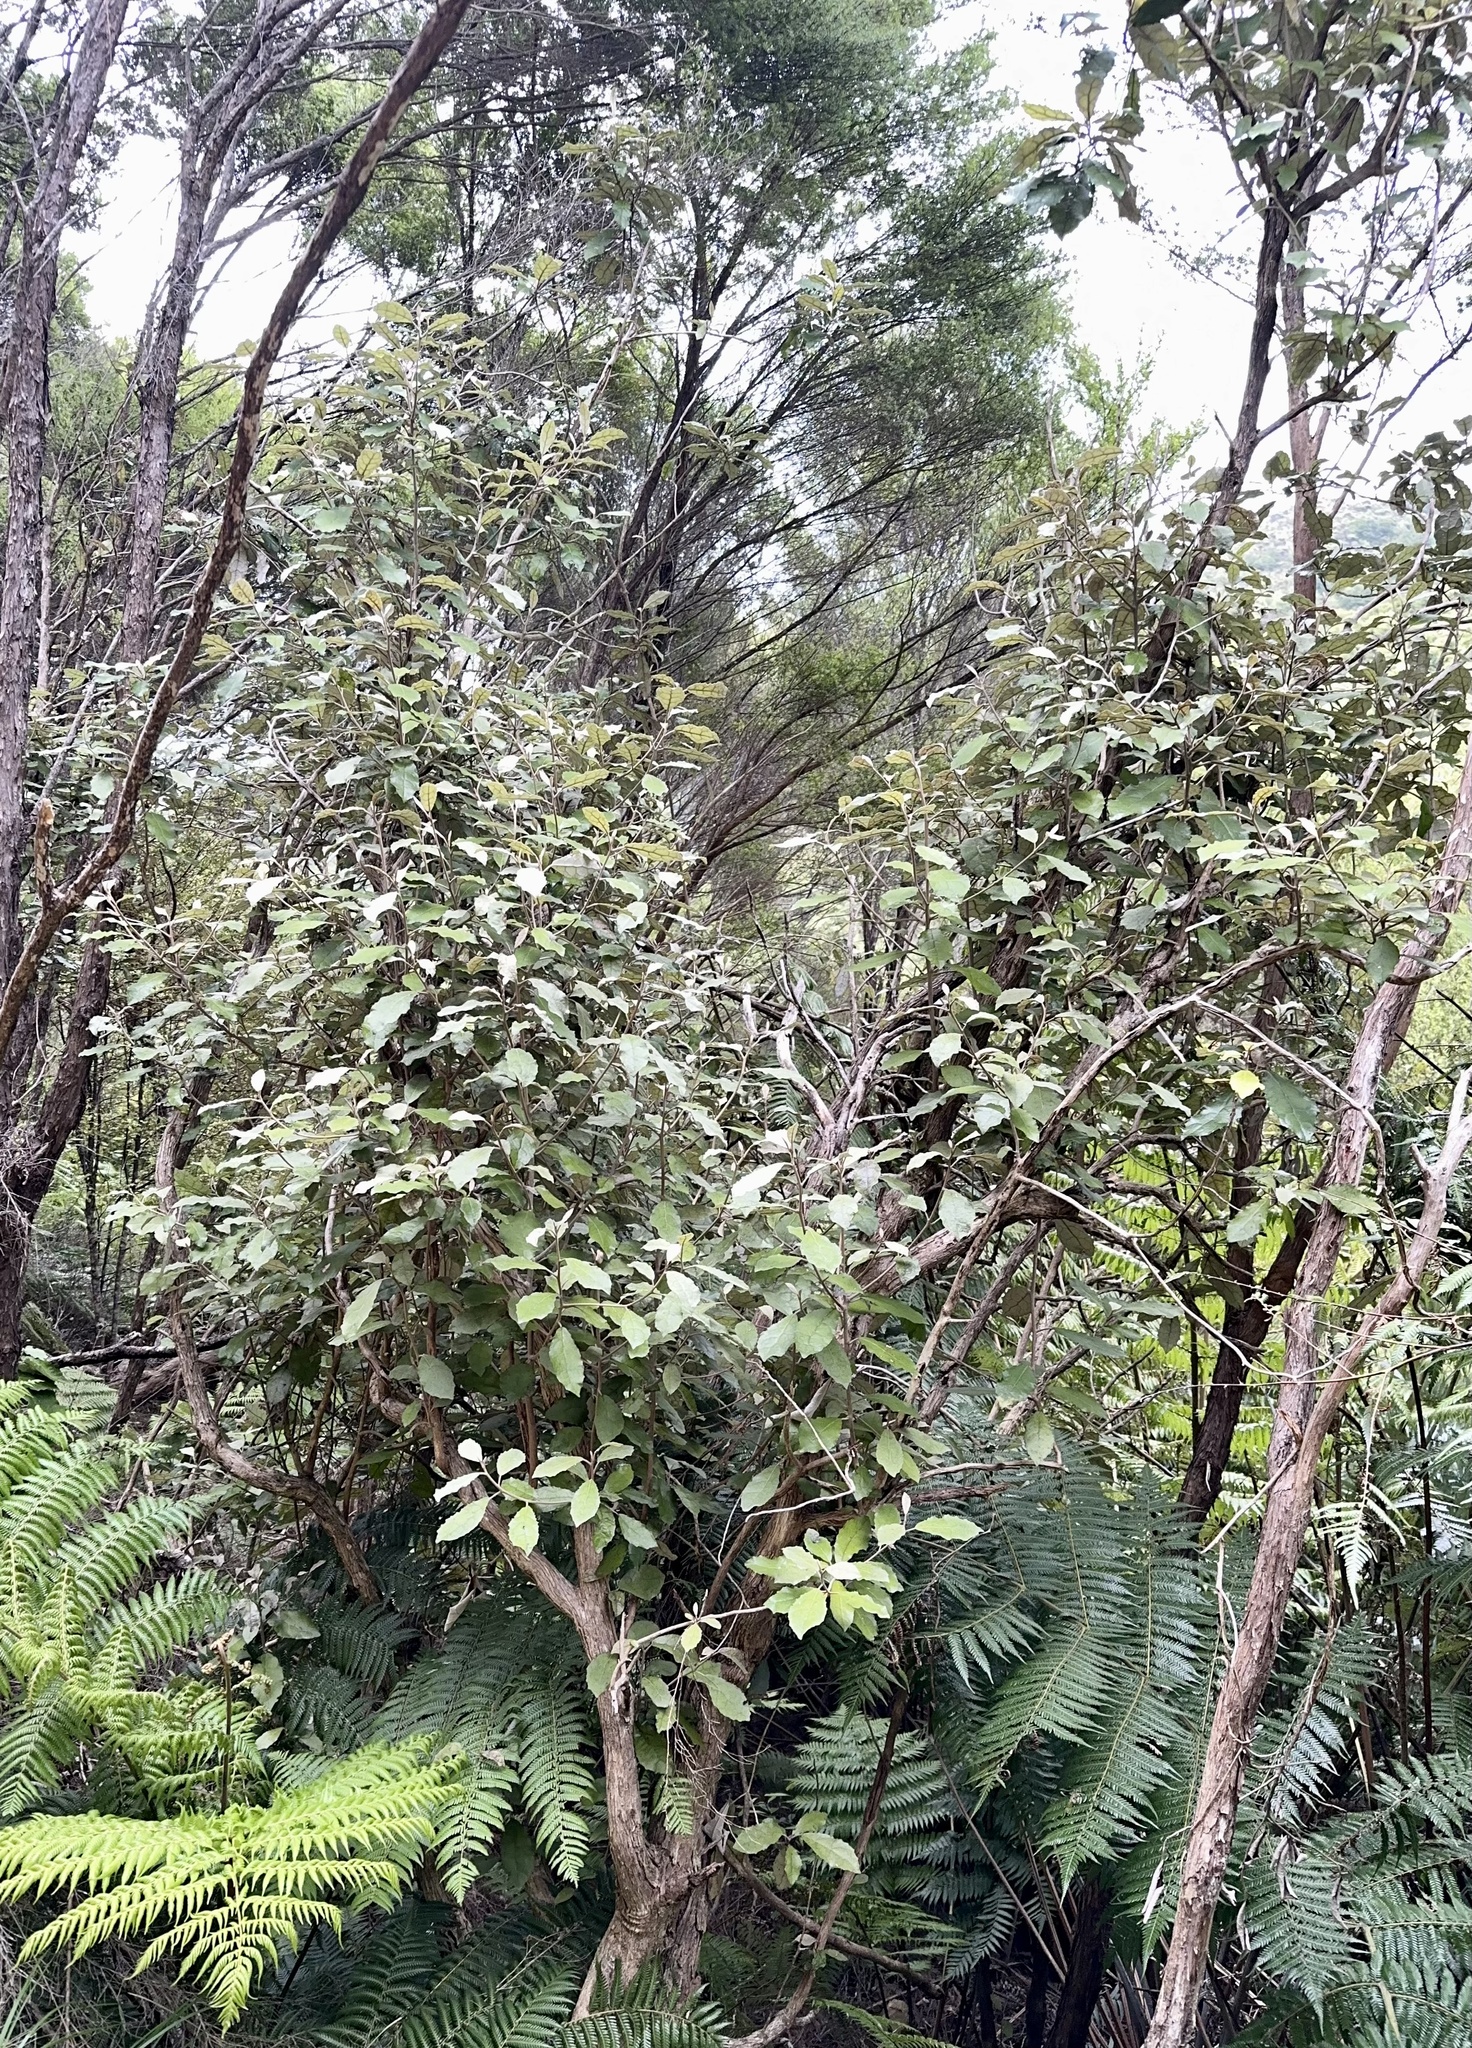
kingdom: Plantae
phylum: Tracheophyta
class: Magnoliopsida
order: Laurales
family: Monimiaceae
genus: Hedycarya
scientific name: Hedycarya arborea
